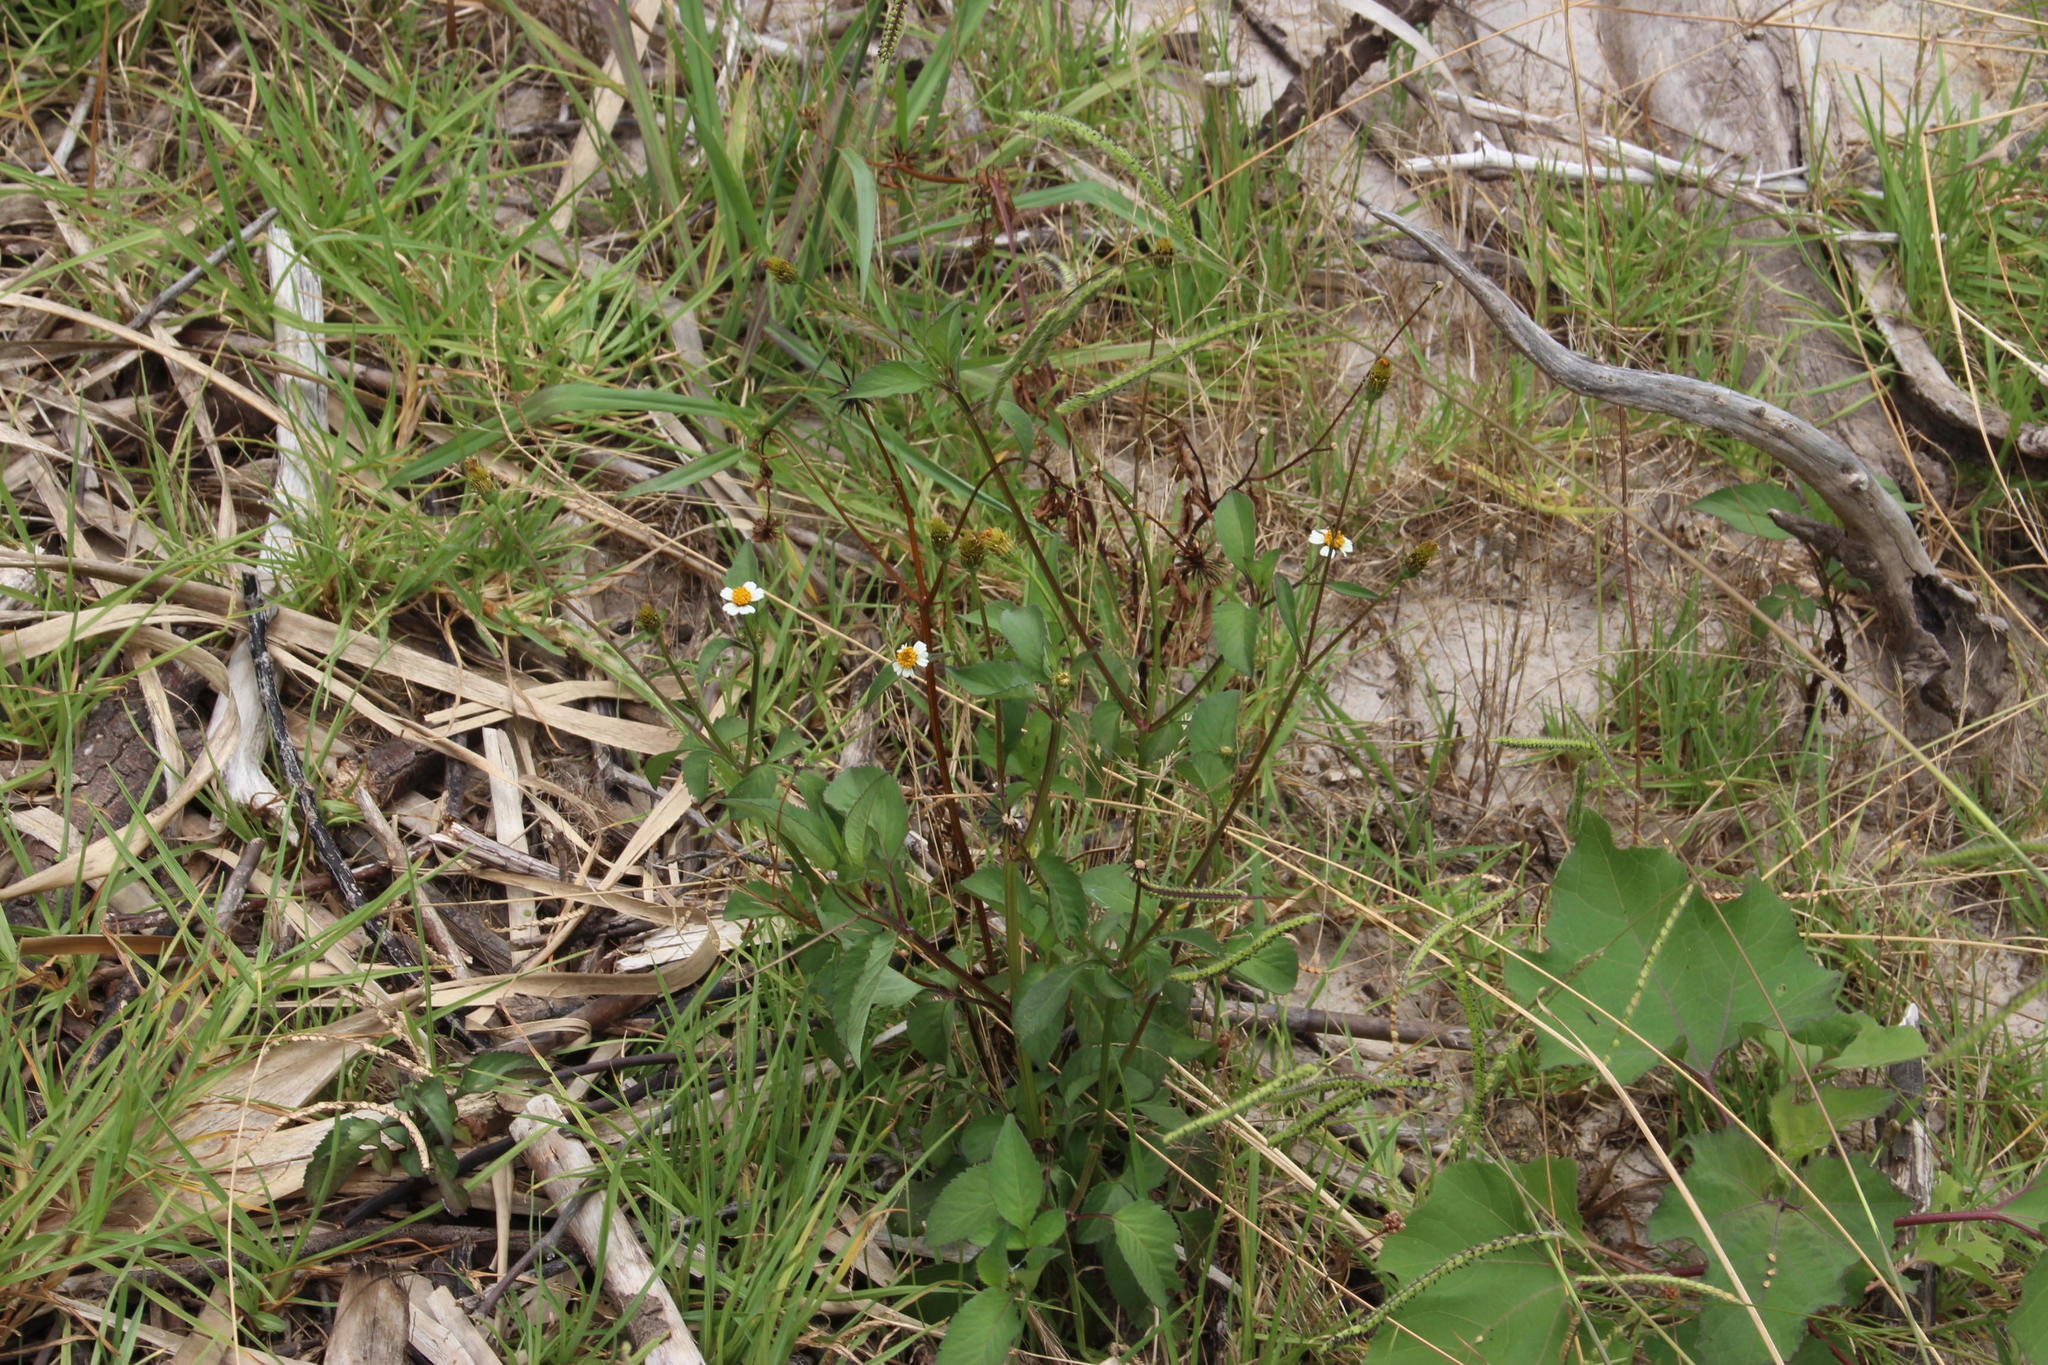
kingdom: Plantae
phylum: Tracheophyta
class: Magnoliopsida
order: Asterales
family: Asteraceae
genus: Bidens
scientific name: Bidens pilosa
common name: Black-jack
